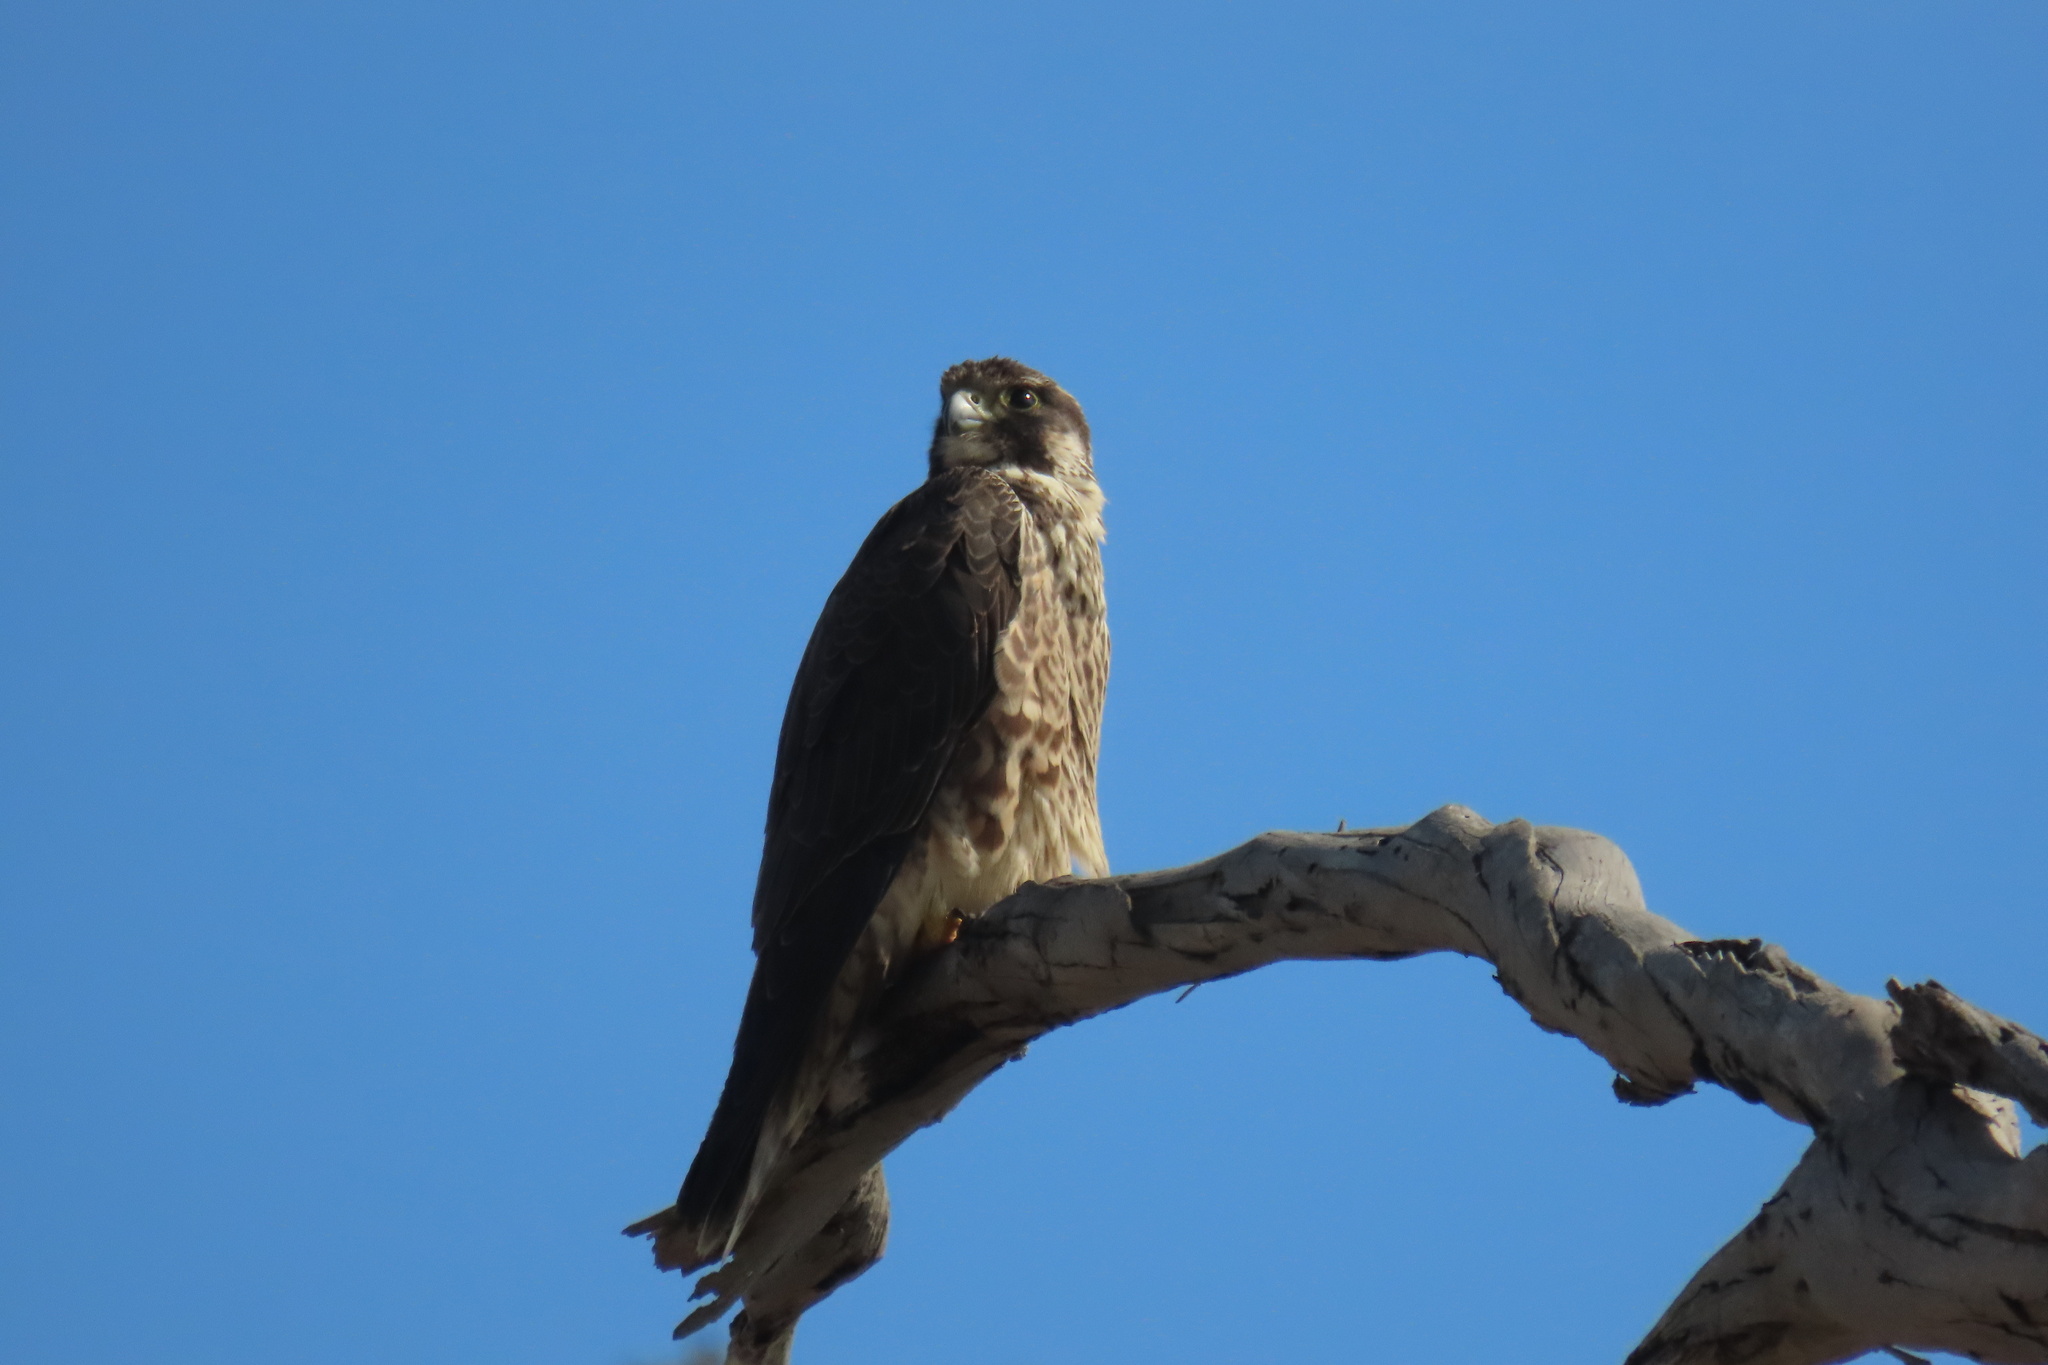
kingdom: Animalia
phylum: Chordata
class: Aves
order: Falconiformes
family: Falconidae
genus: Falco
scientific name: Falco peregrinus
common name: Peregrine falcon
